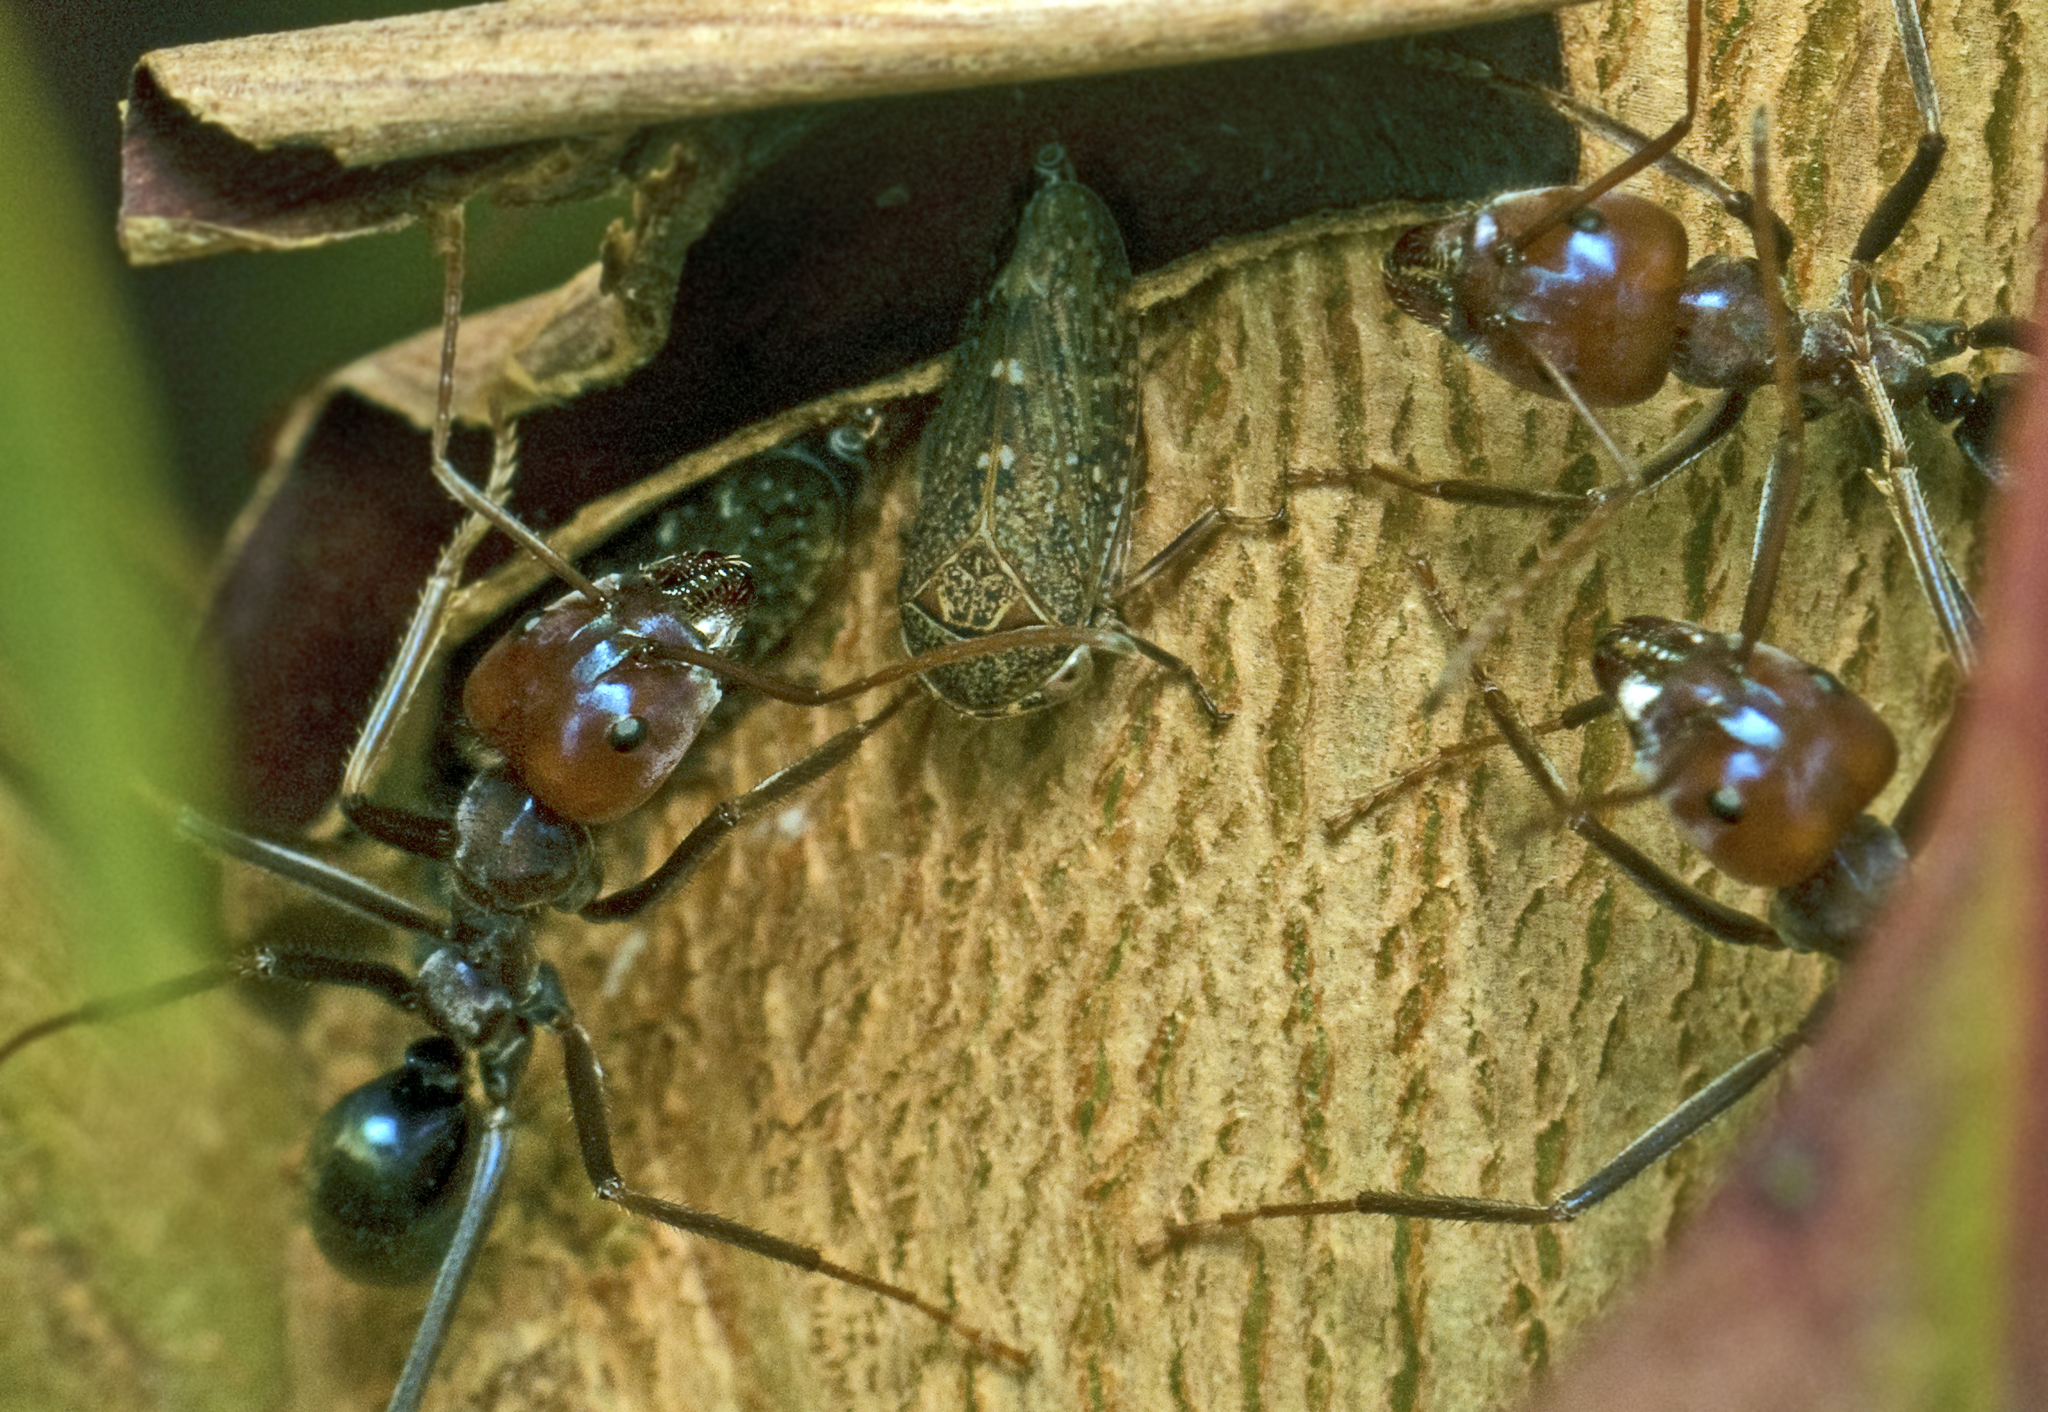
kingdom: Animalia
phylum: Arthropoda
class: Insecta
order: Hymenoptera
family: Formicidae
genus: Iridomyrmex
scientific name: Iridomyrmex purpureus
